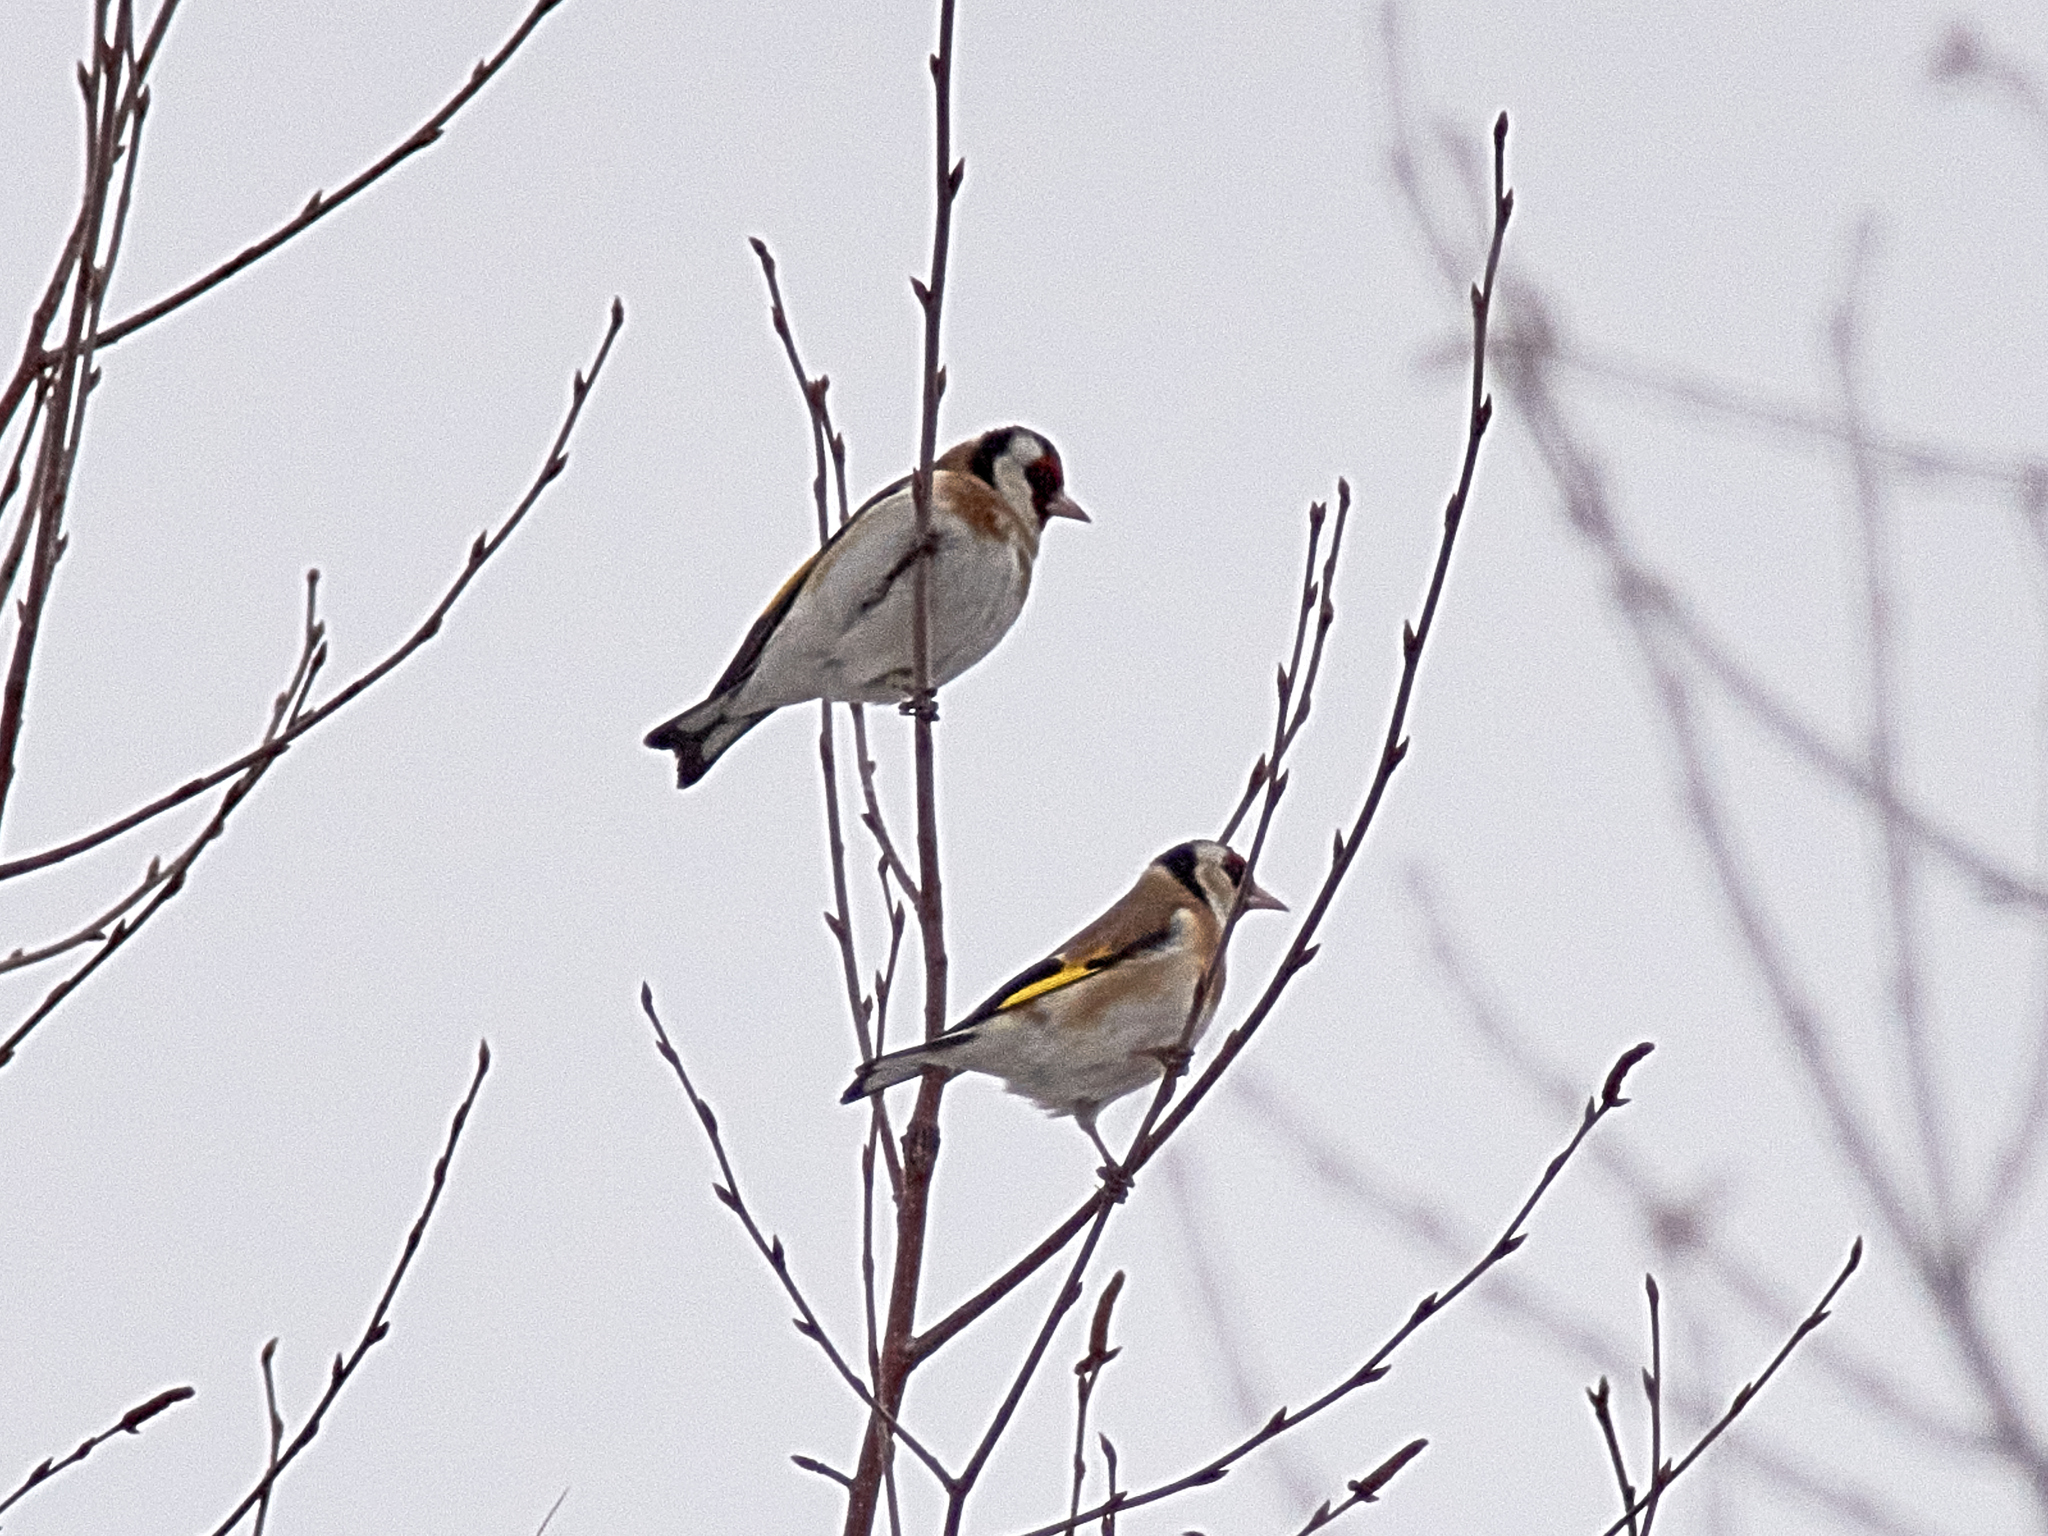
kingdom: Animalia
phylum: Chordata
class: Aves
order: Passeriformes
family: Fringillidae
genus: Carduelis
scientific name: Carduelis carduelis
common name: European goldfinch
